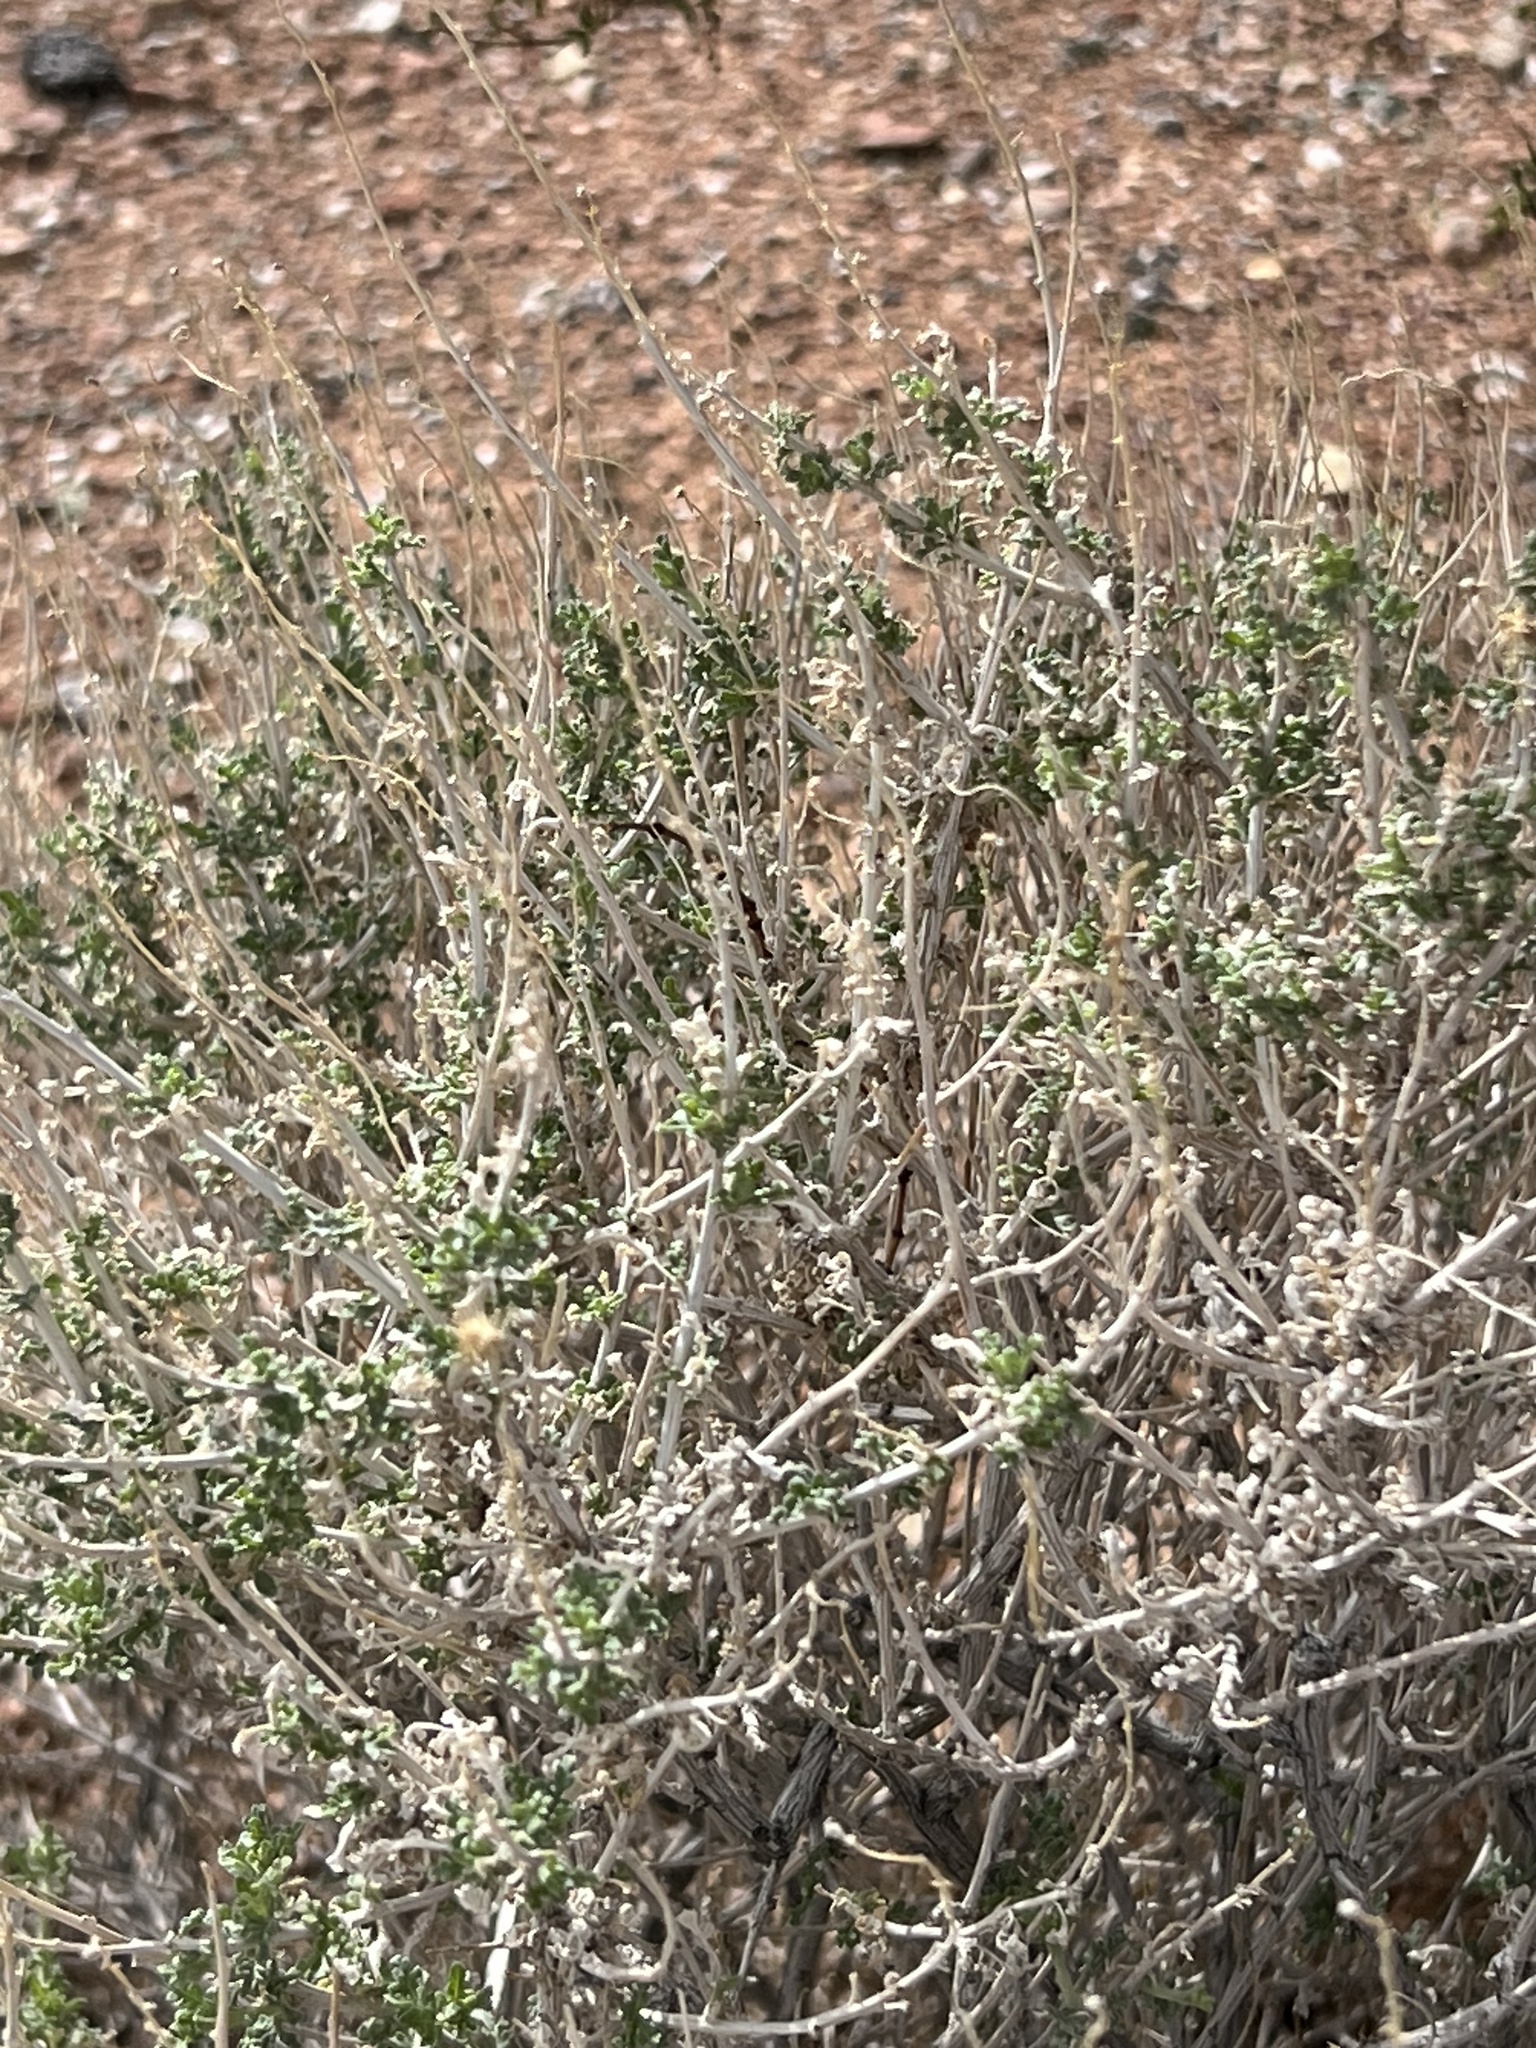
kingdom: Plantae
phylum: Tracheophyta
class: Magnoliopsida
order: Asterales
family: Asteraceae
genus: Ambrosia
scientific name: Ambrosia dumosa
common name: Bur-sage
